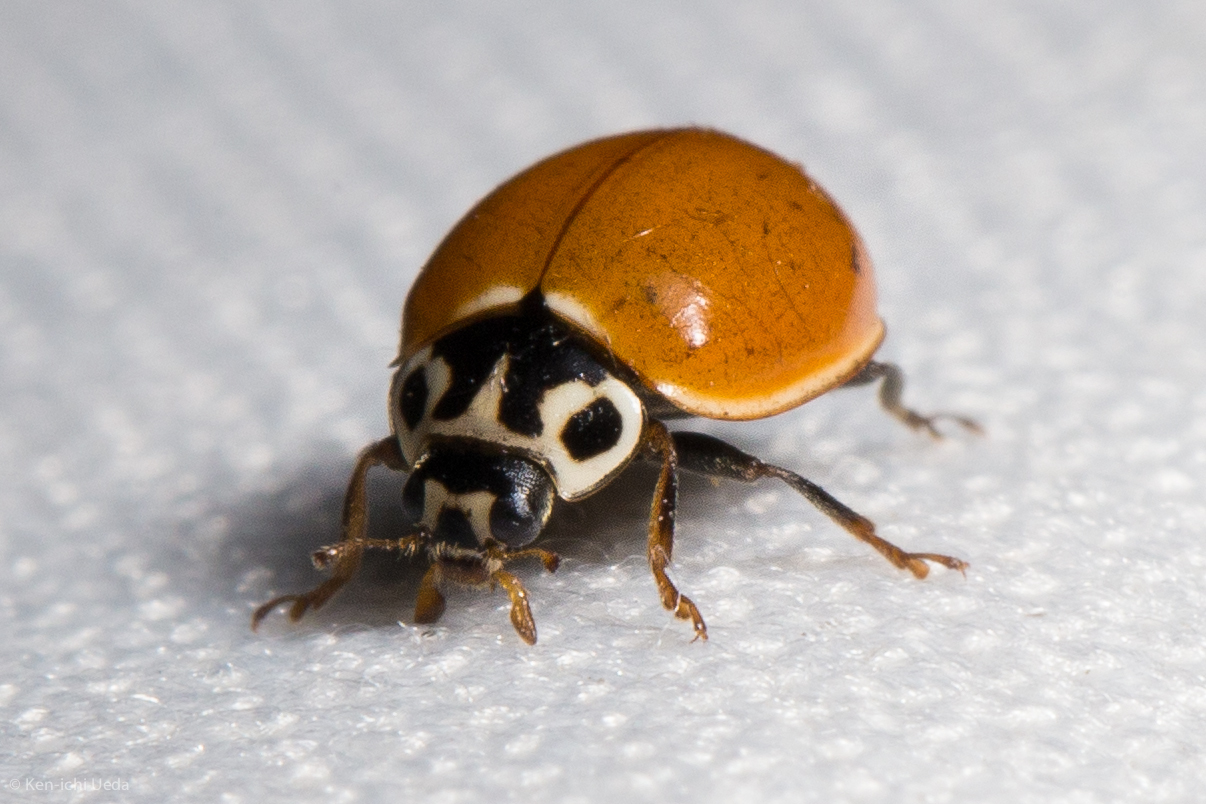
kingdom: Animalia
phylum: Arthropoda
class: Insecta
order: Coleoptera
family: Coccinellidae
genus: Cycloneda
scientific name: Cycloneda polita
